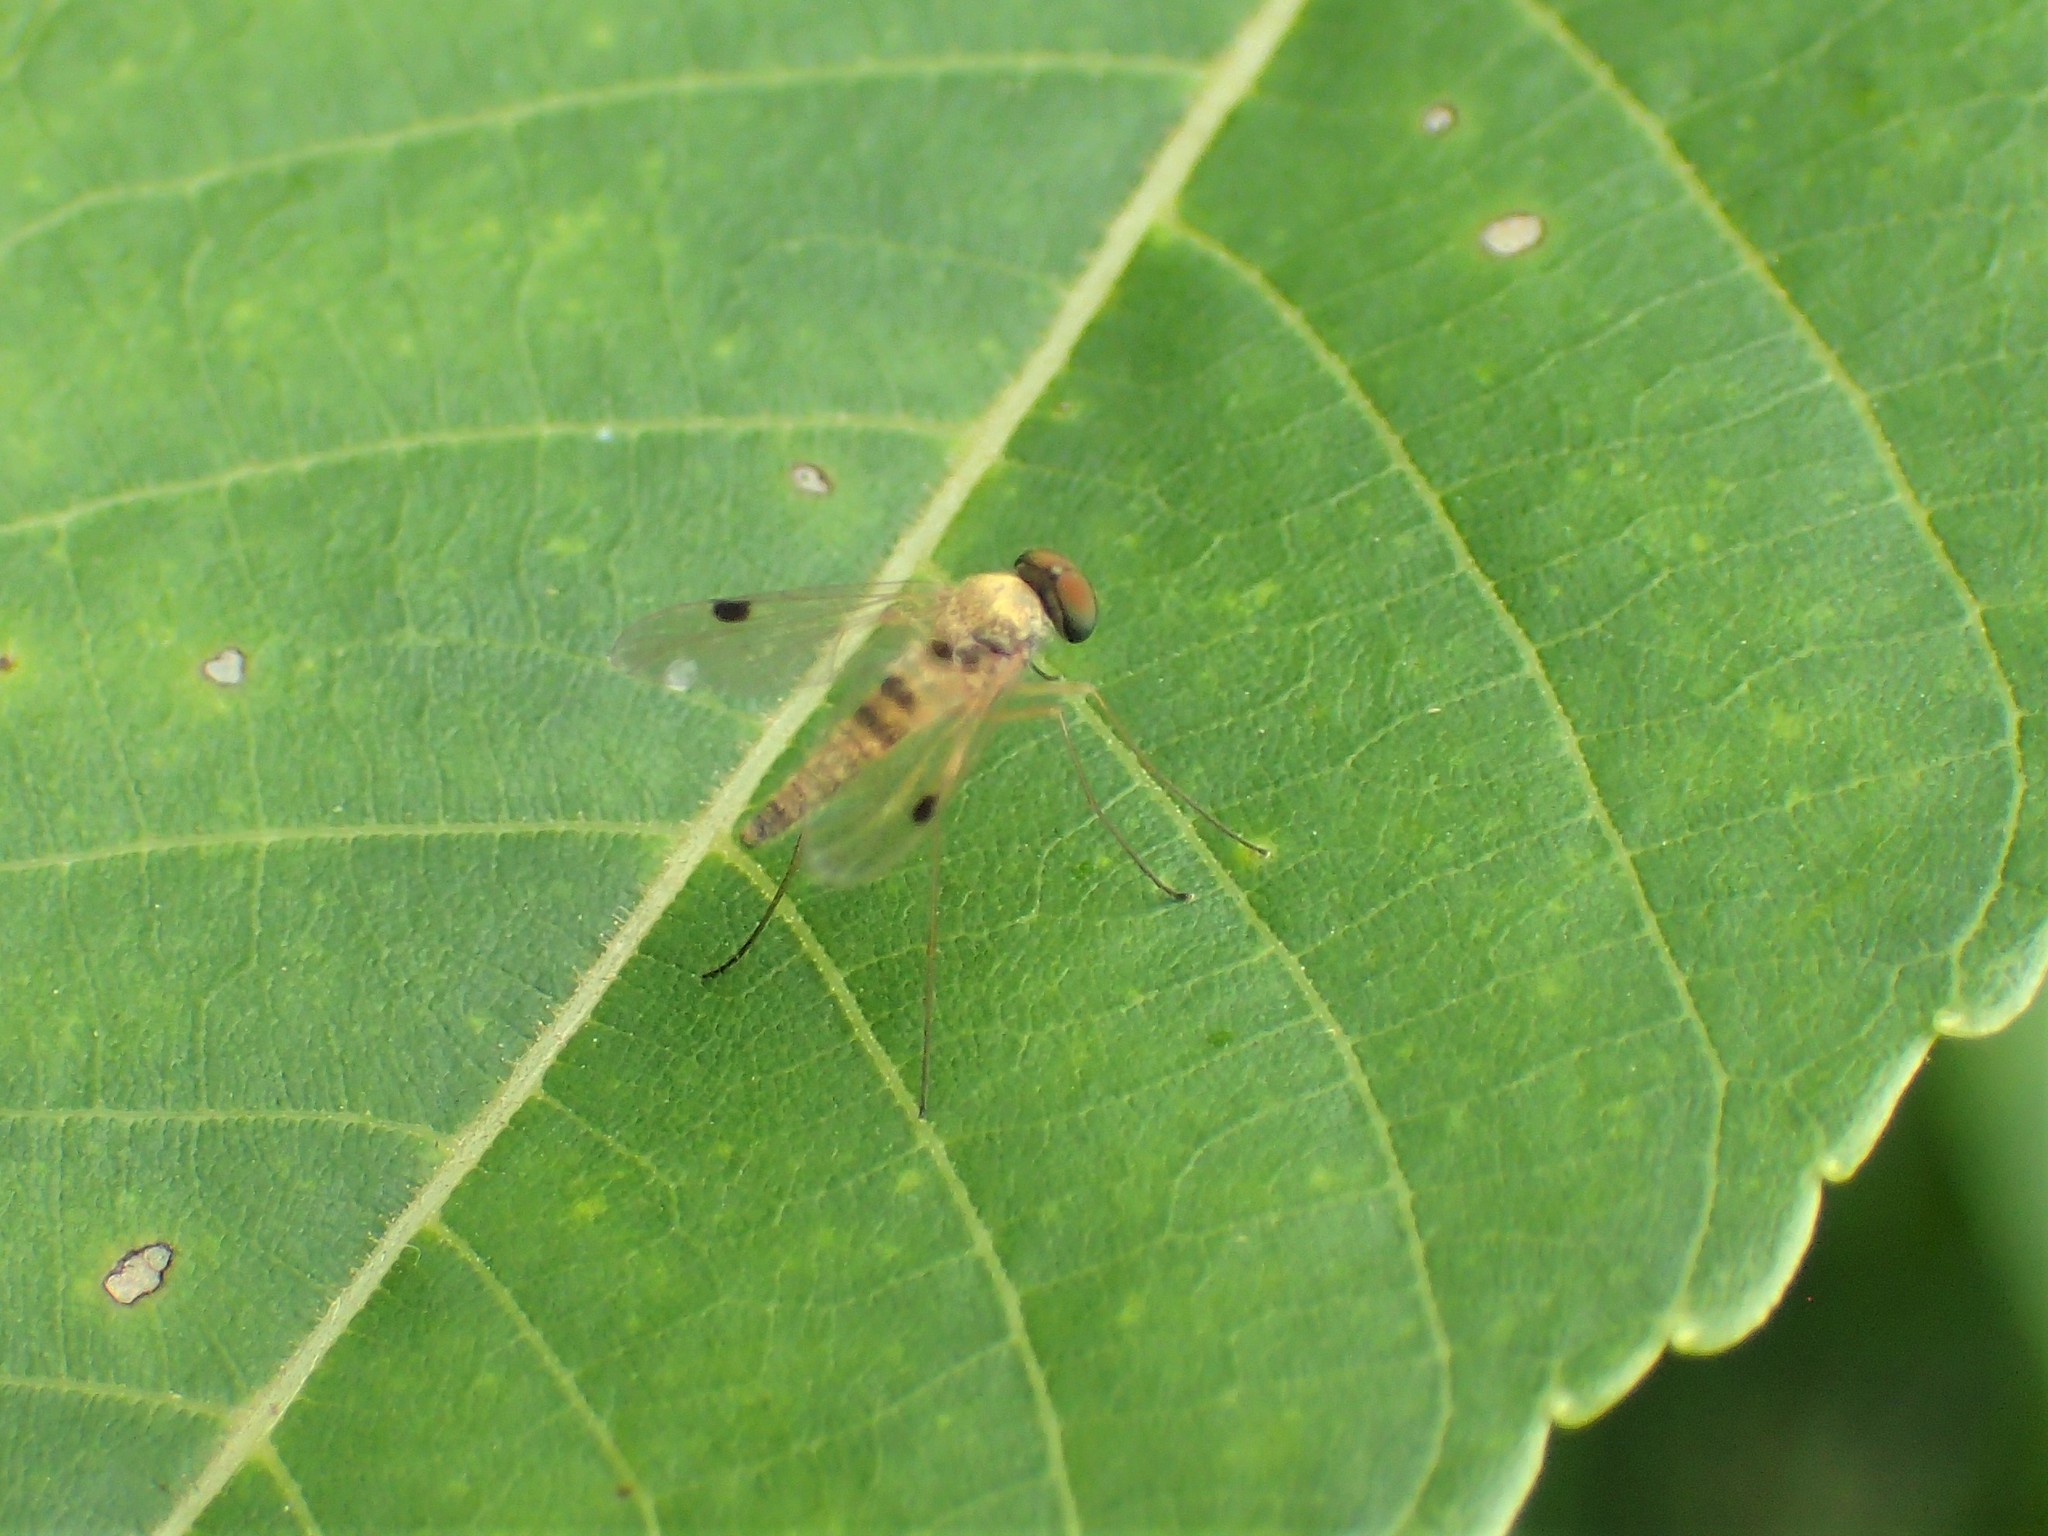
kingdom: Animalia
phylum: Arthropoda
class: Insecta
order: Diptera
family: Rhagionidae
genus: Chrysopilus
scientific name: Chrysopilus modestus
